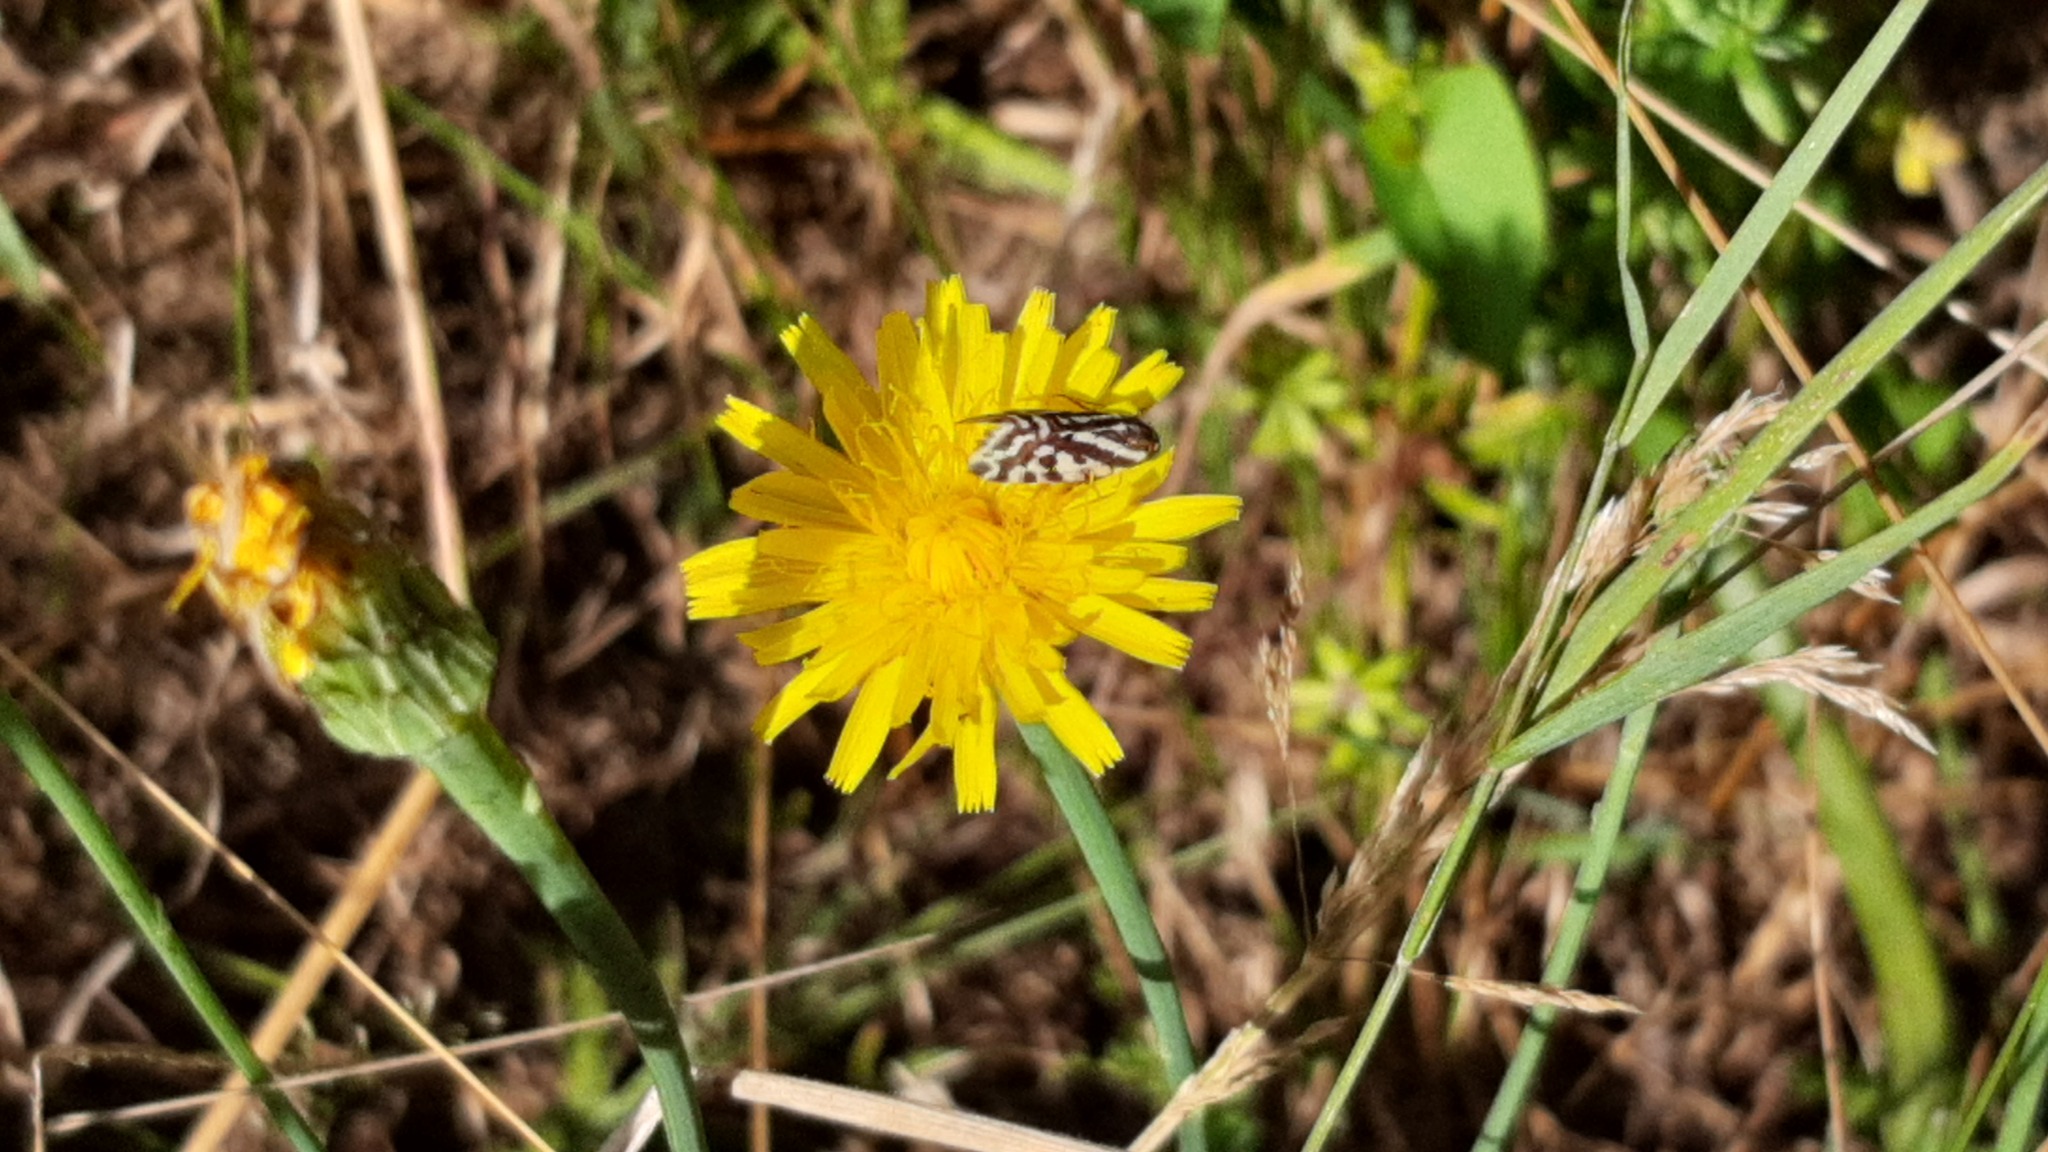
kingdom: Animalia
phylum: Arthropoda
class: Insecta
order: Lepidoptera
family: Noctuidae
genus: Acontia
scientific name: Acontia trabealis
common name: Spotted sulphur
